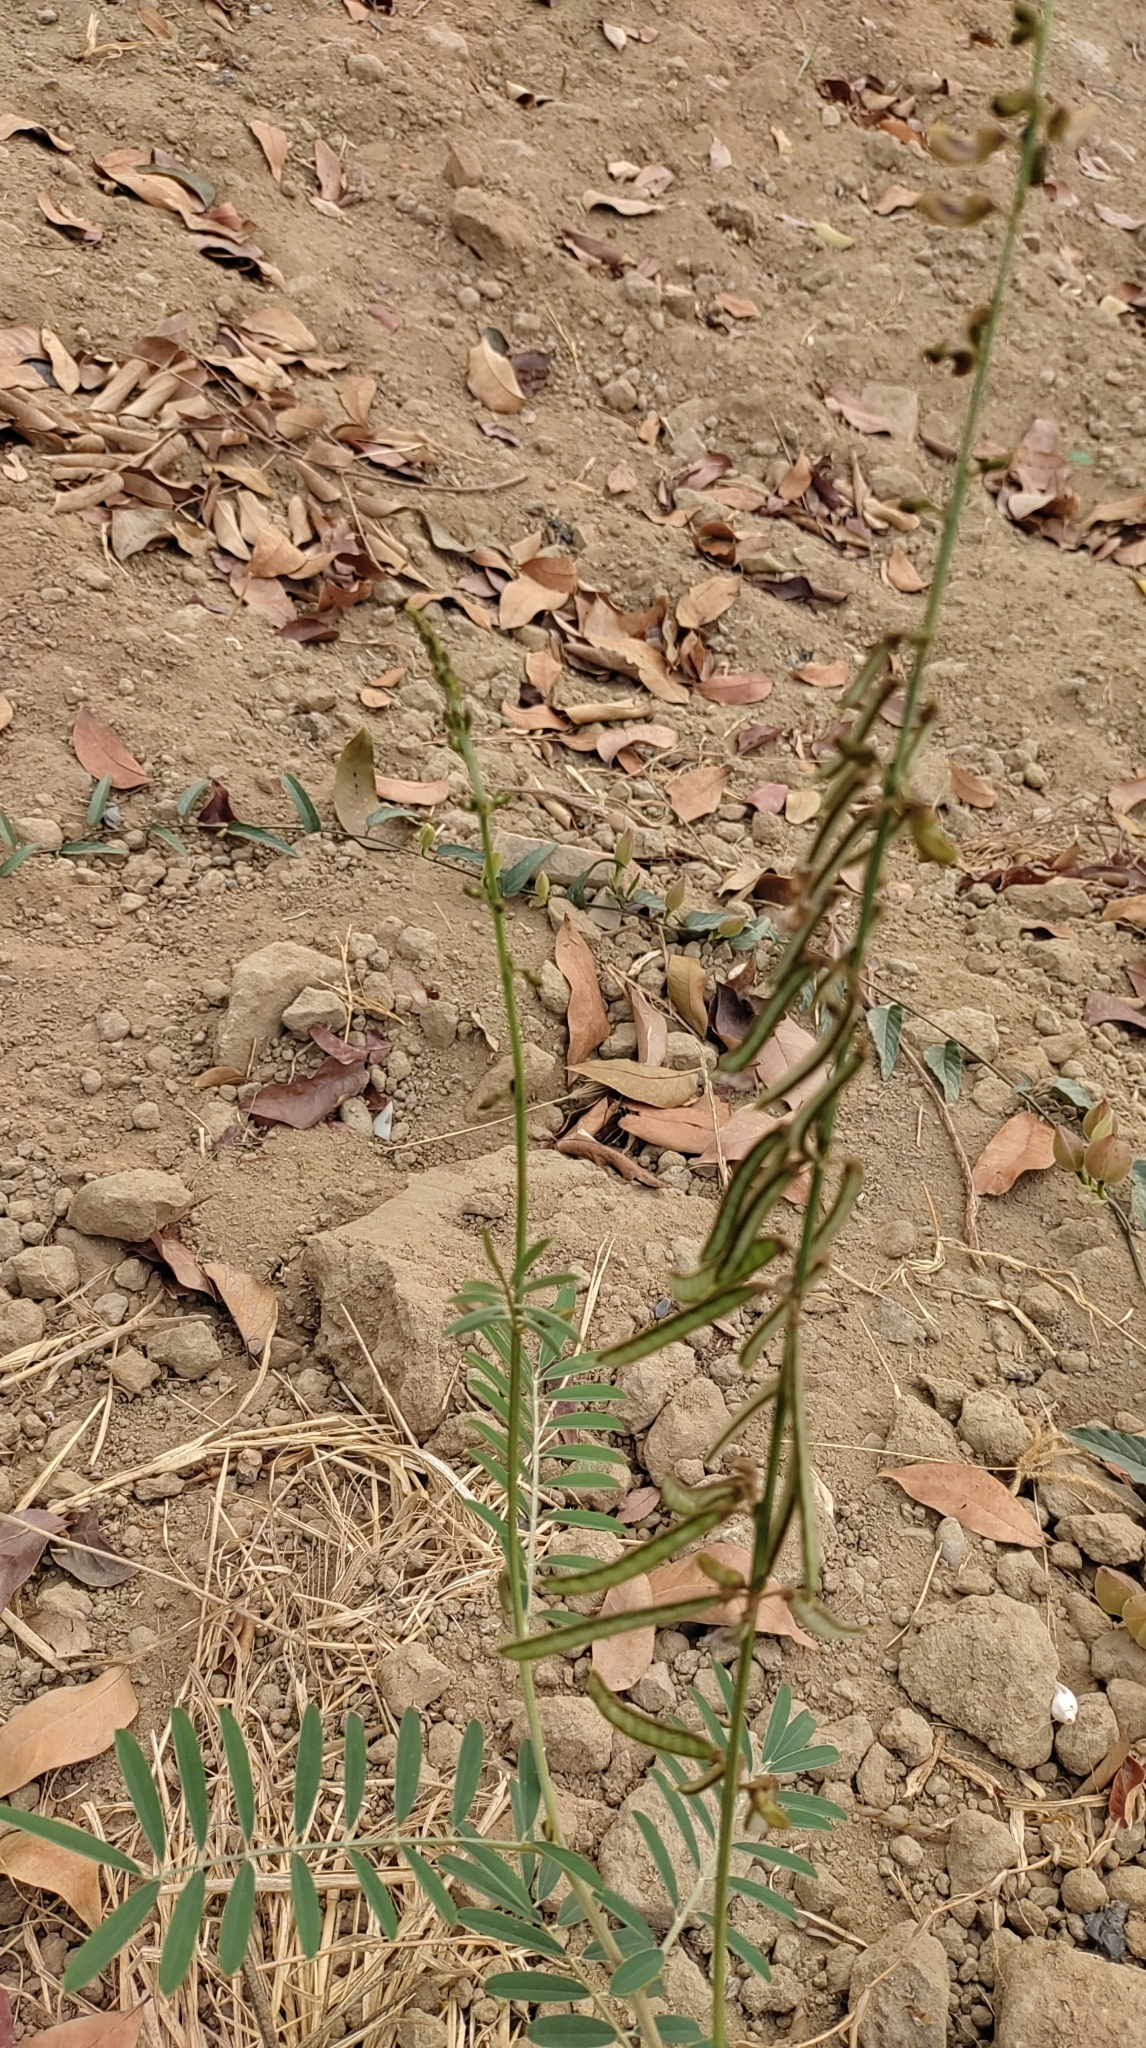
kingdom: Plantae
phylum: Tracheophyta
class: Magnoliopsida
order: Fabales
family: Fabaceae
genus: Tephrosia
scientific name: Tephrosia noctiflora
